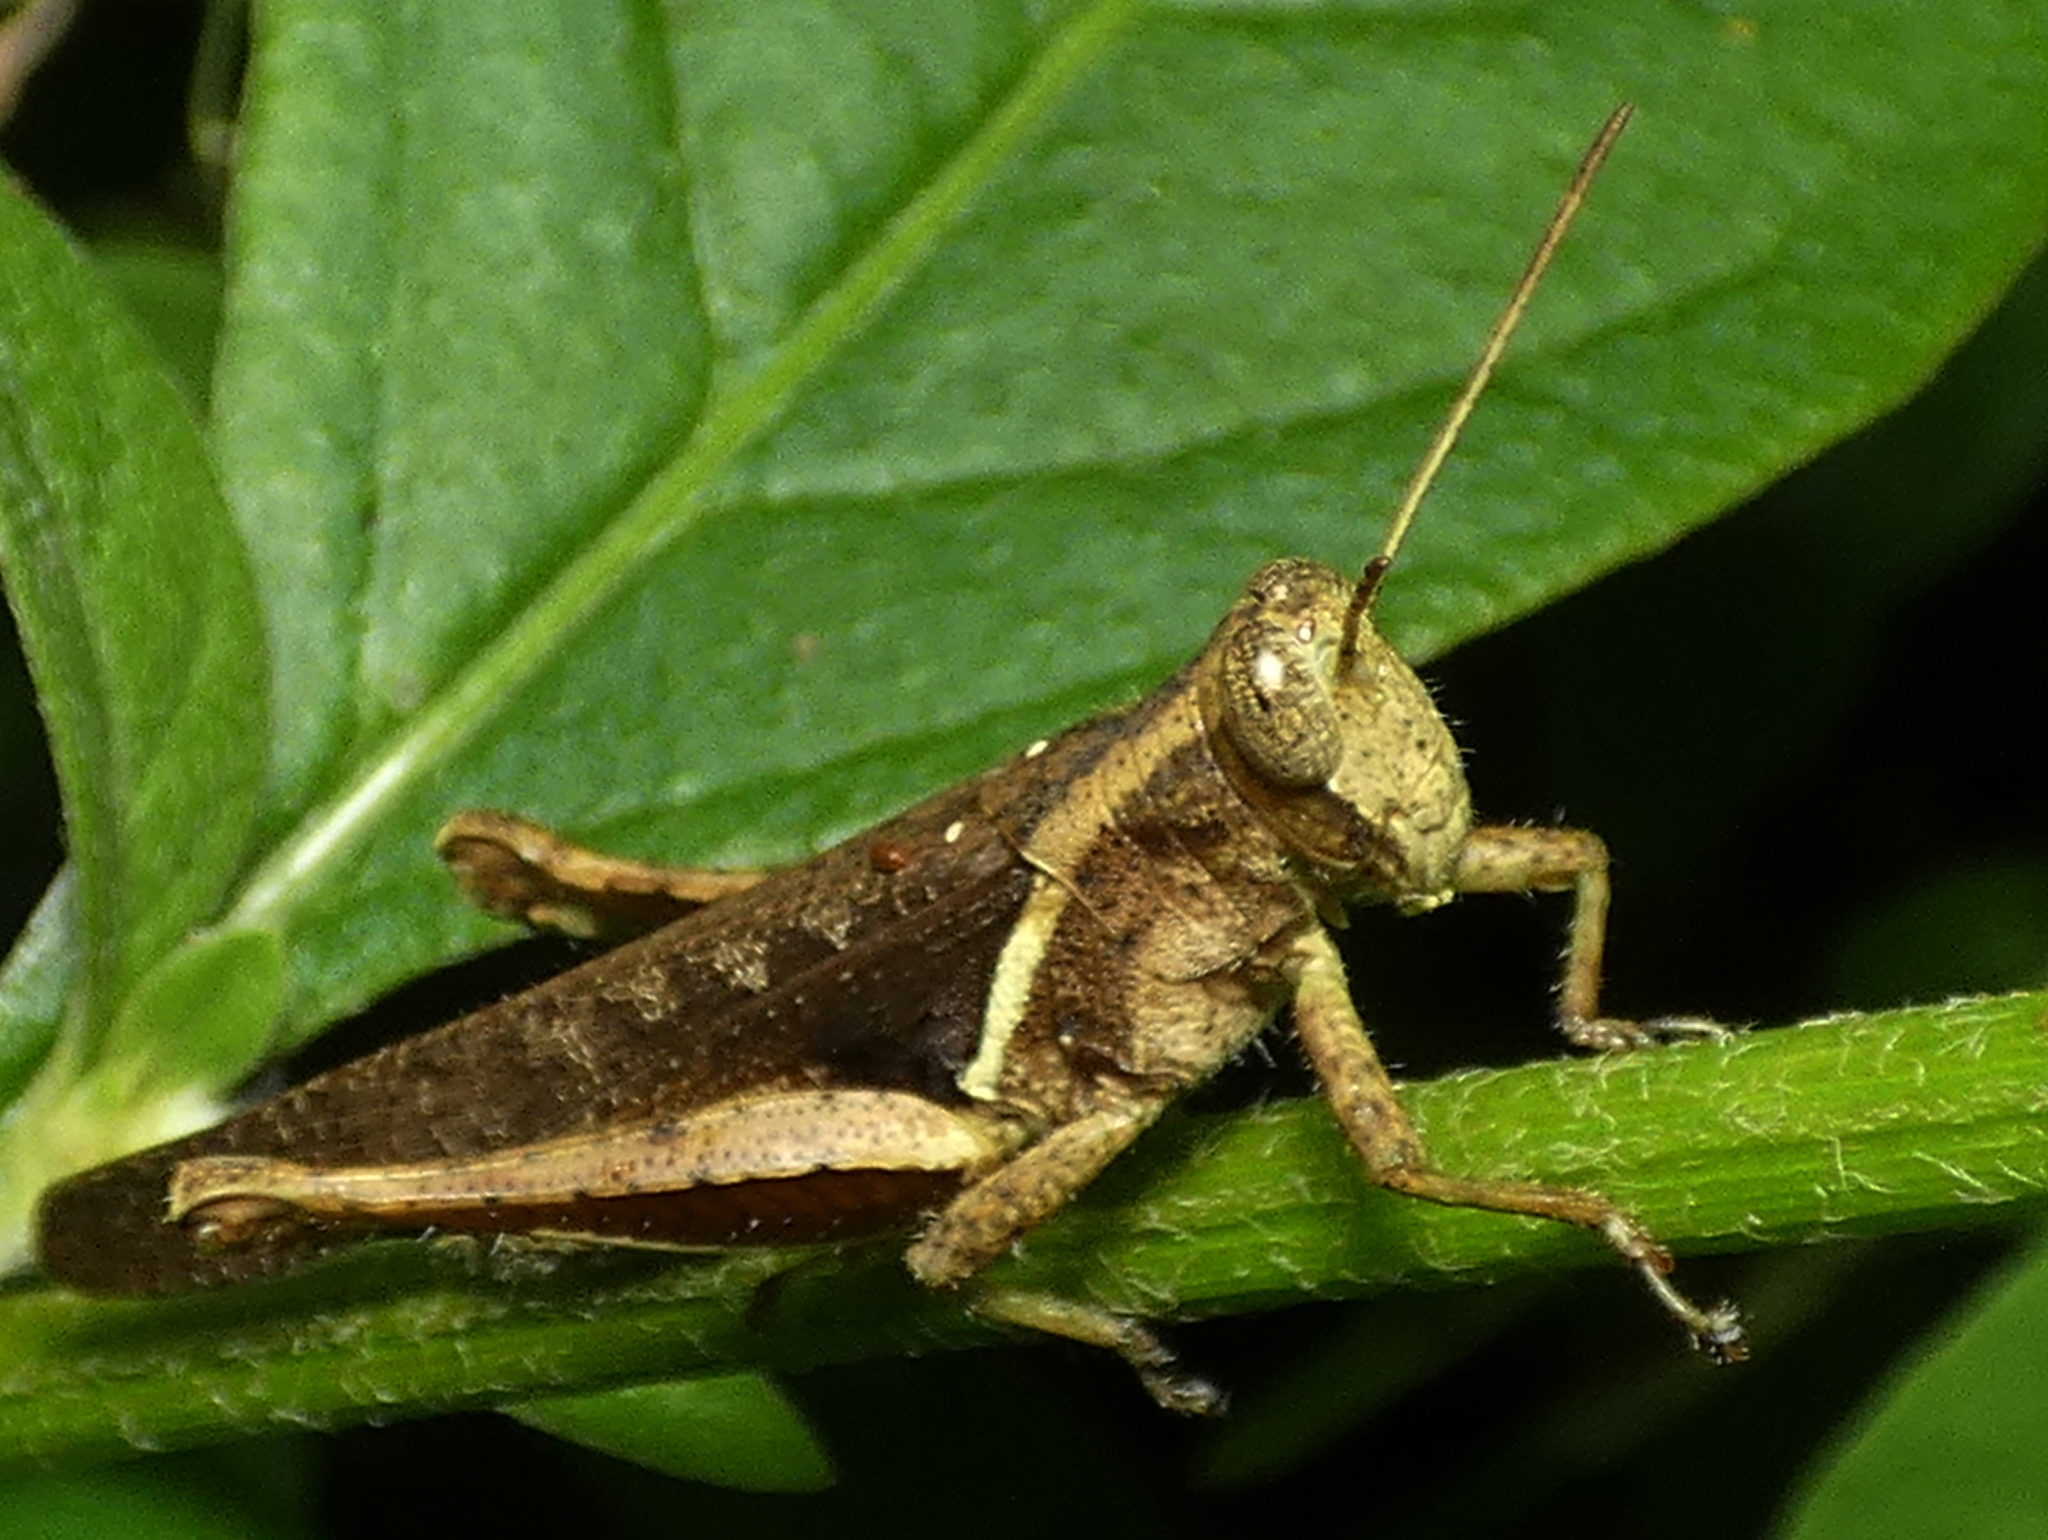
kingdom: Animalia
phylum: Arthropoda
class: Insecta
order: Orthoptera
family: Acrididae
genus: Abracris
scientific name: Abracris flavolineata
